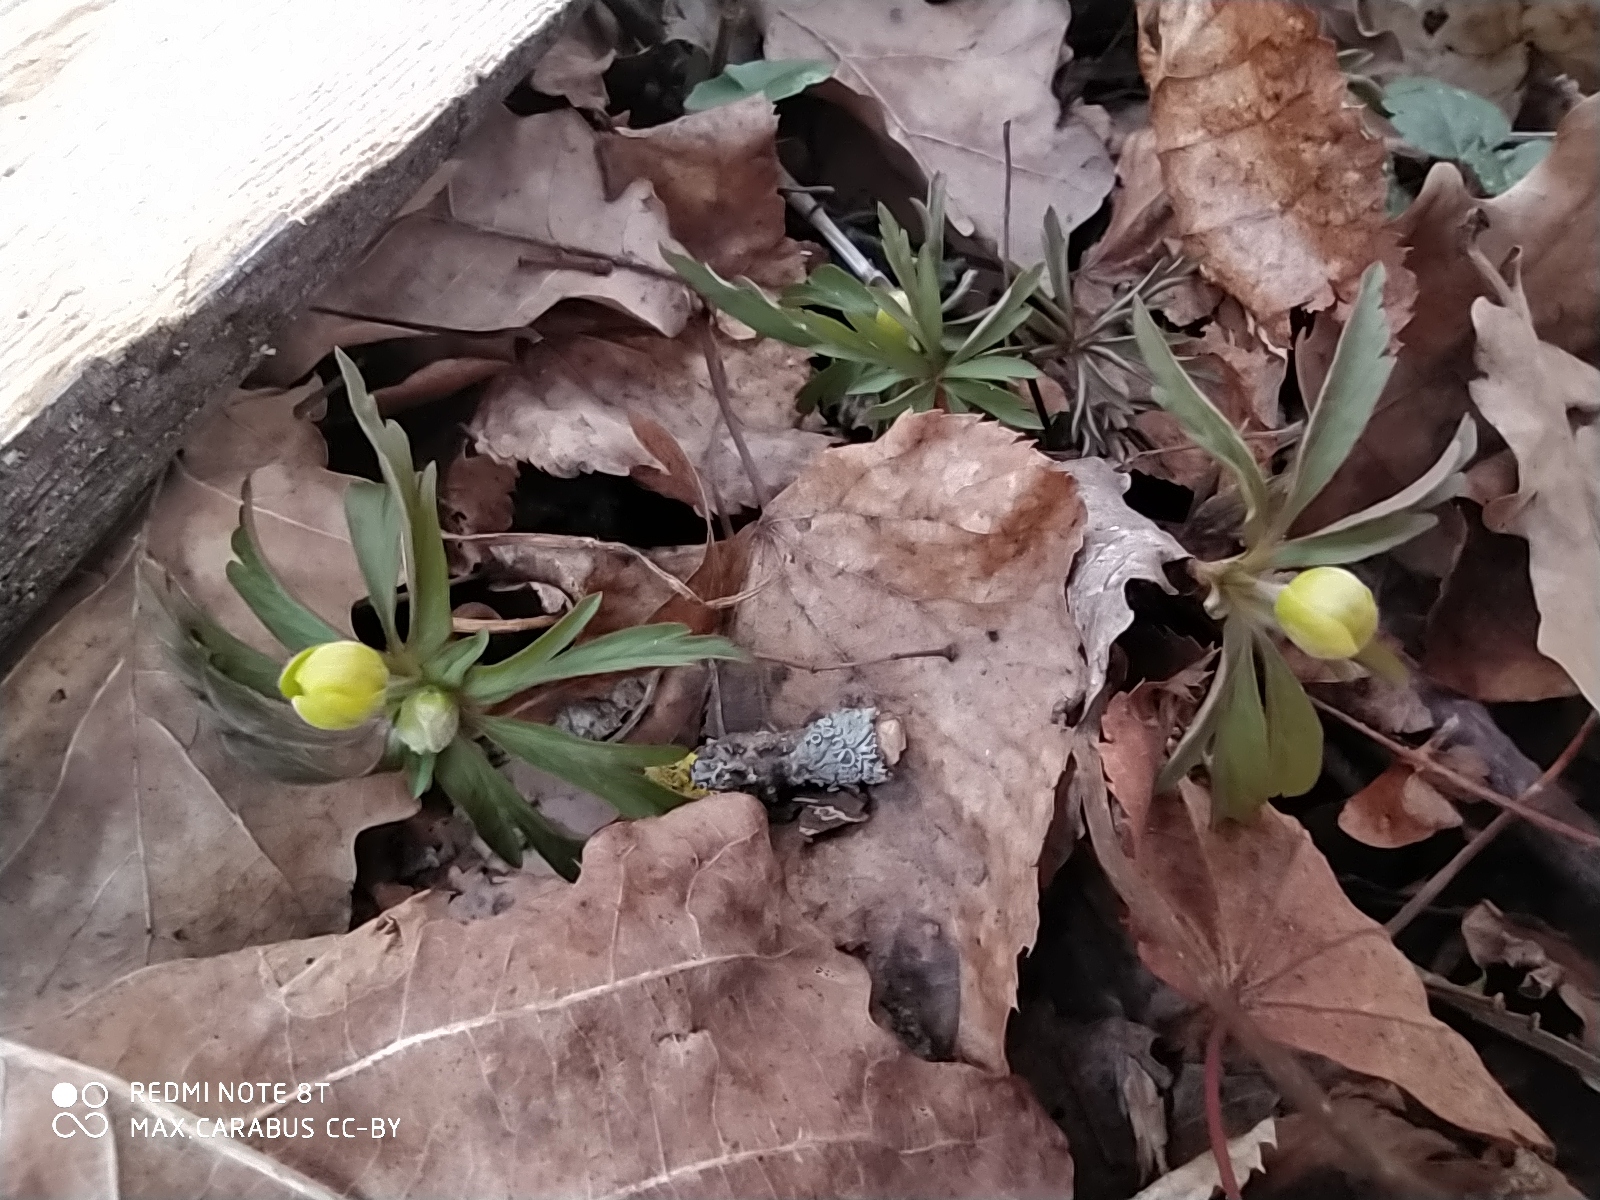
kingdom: Plantae
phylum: Tracheophyta
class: Magnoliopsida
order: Ranunculales
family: Ranunculaceae
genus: Anemone
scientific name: Anemone ranunculoides
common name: Yellow anemone
